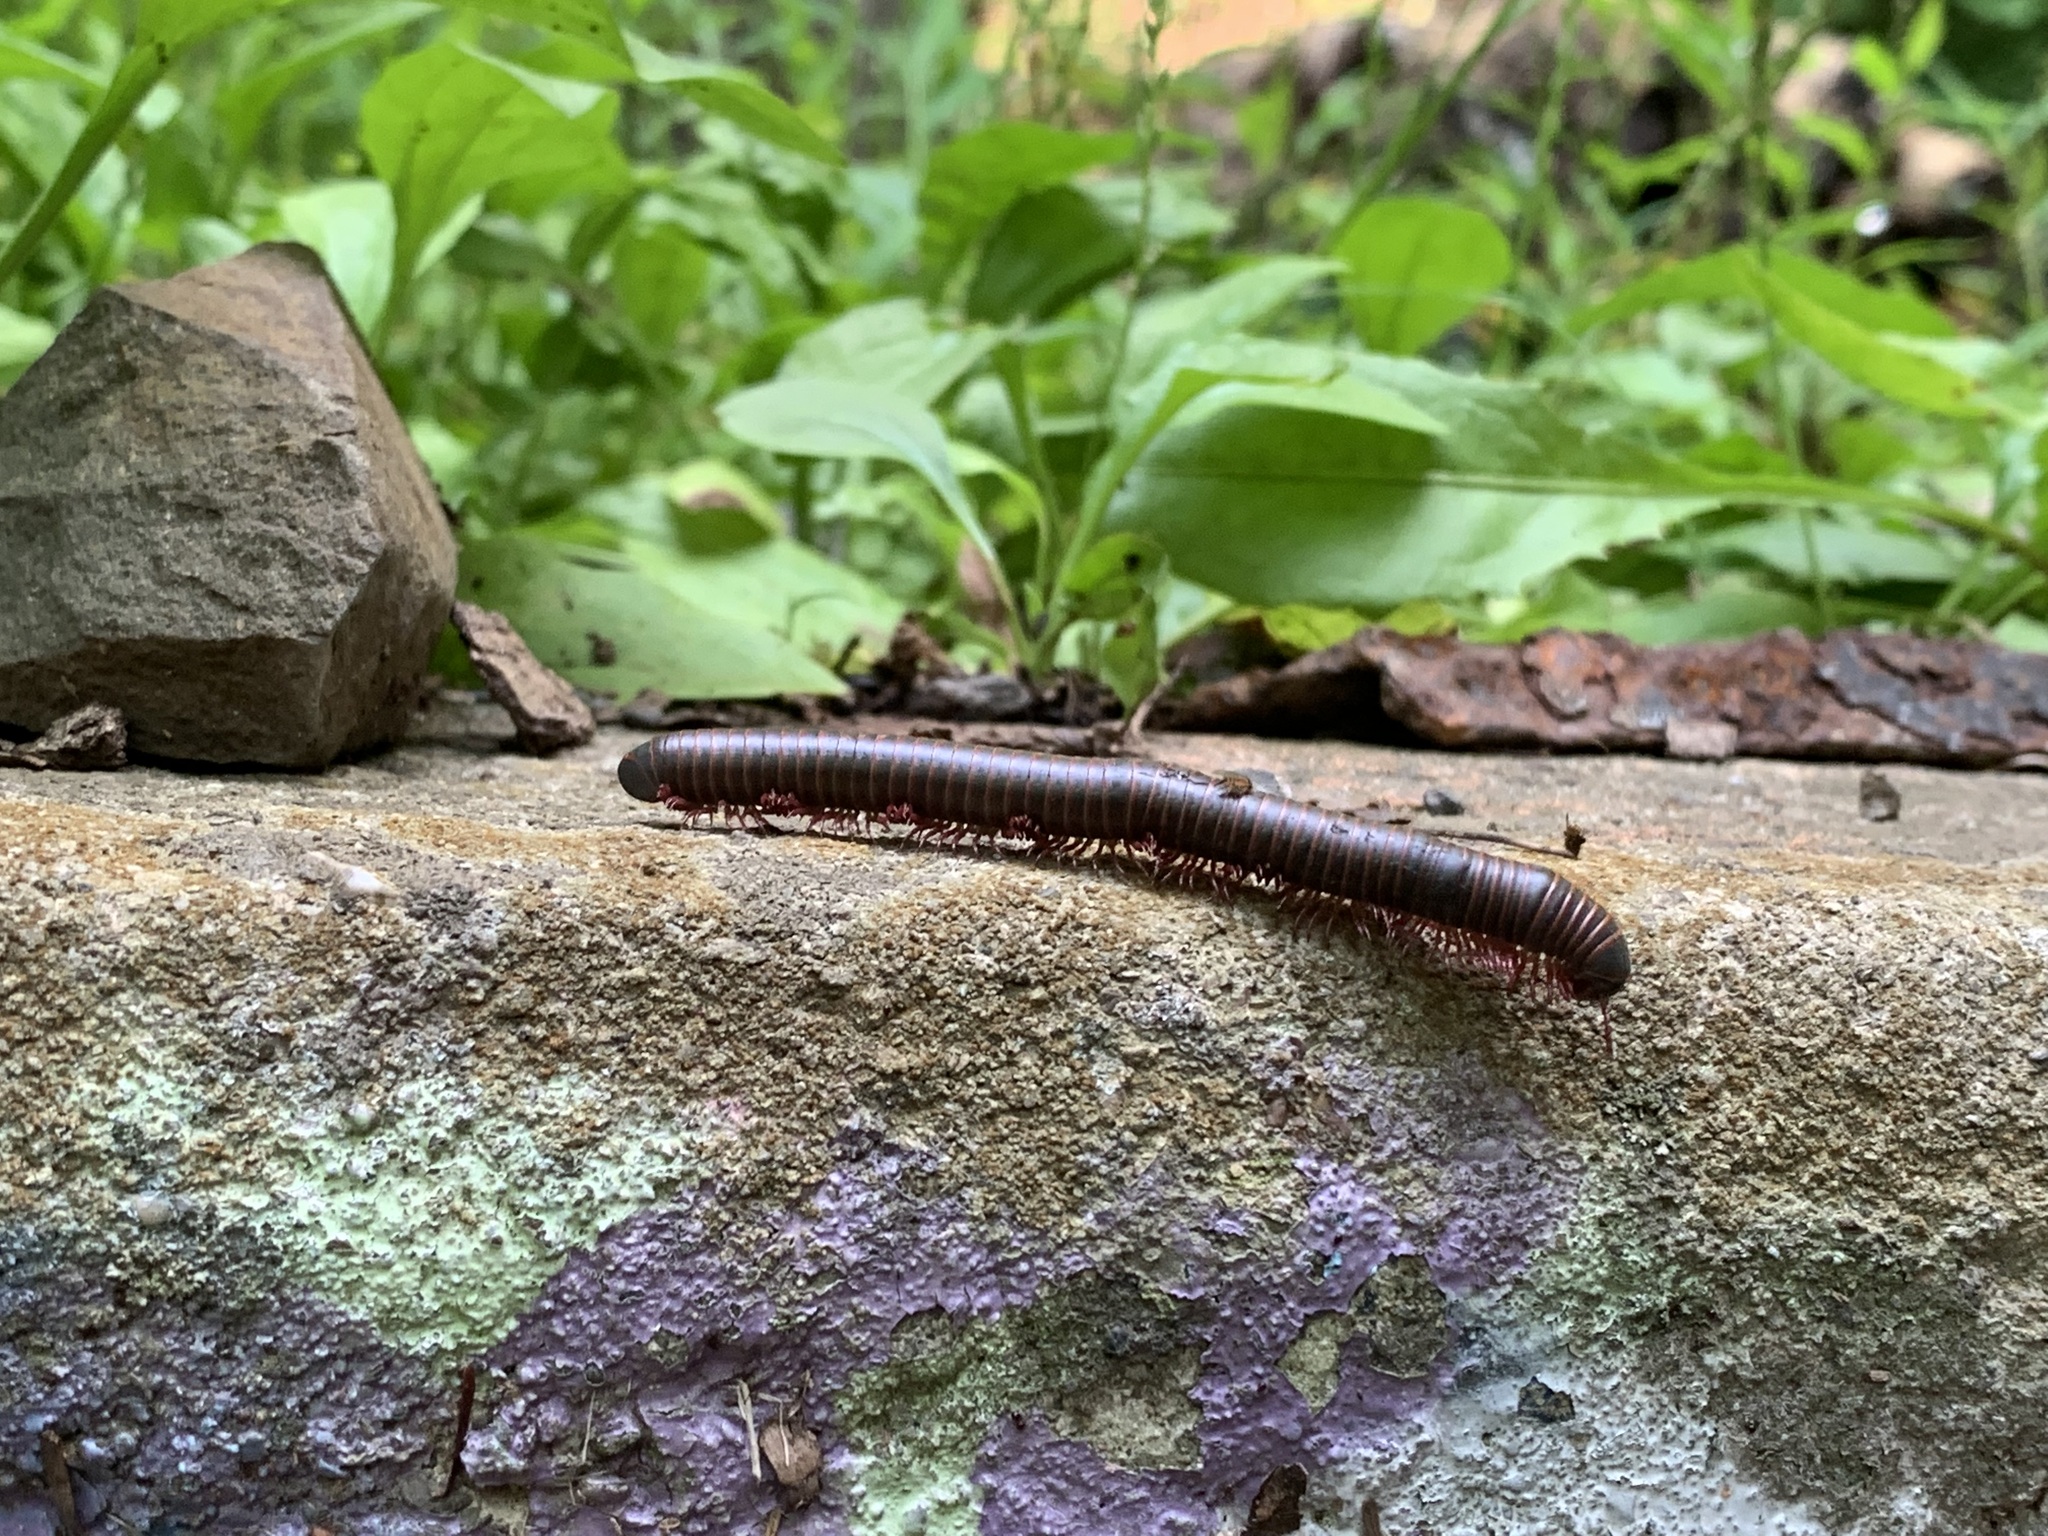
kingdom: Animalia
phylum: Arthropoda
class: Diplopoda
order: Spirobolida
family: Spirobolidae
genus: Narceus
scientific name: Narceus
